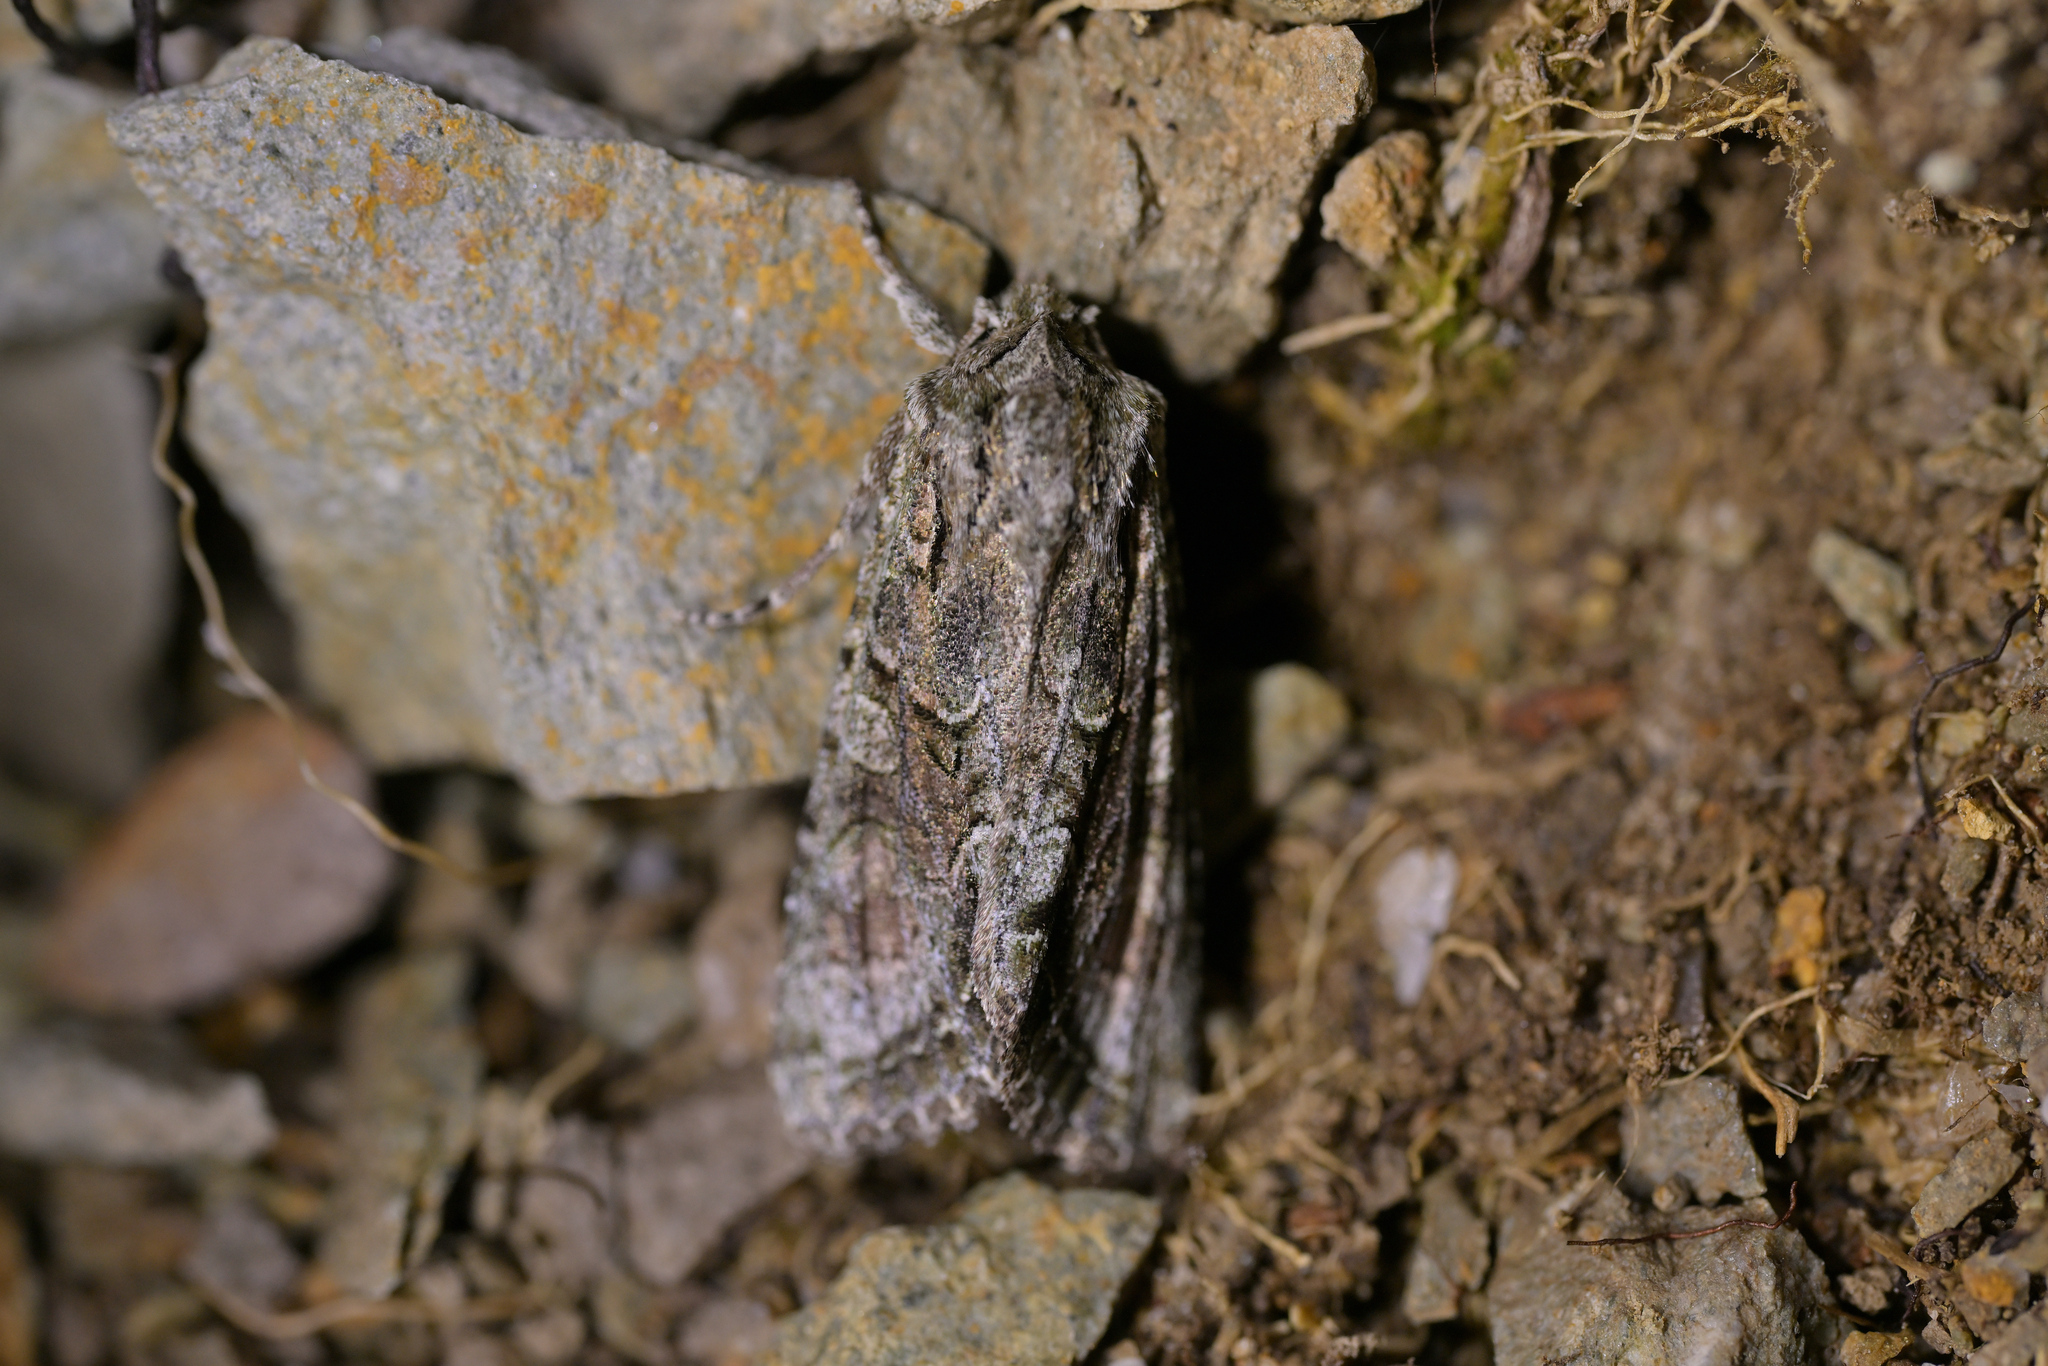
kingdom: Animalia
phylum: Arthropoda
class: Insecta
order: Lepidoptera
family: Noctuidae
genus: Ichneutica
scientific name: Ichneutica mutans
